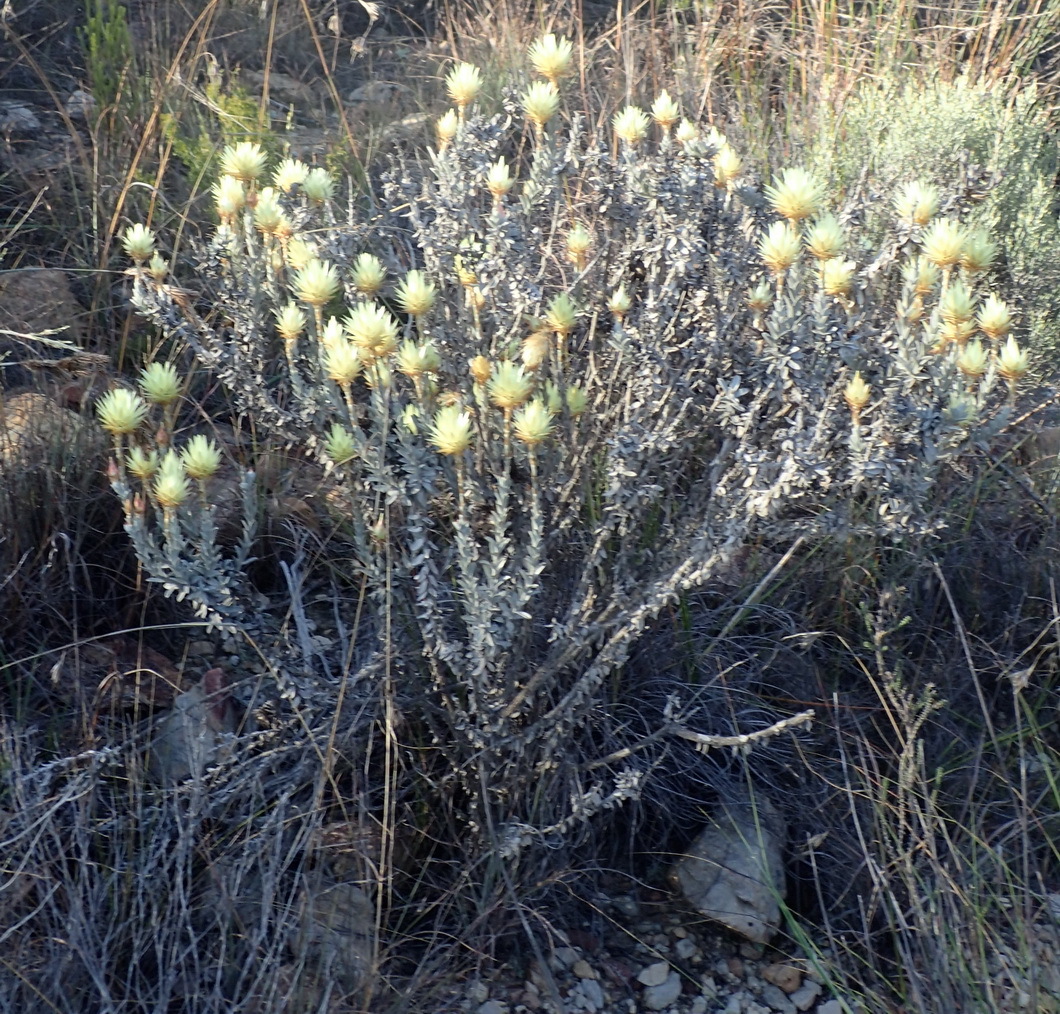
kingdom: Plantae
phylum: Tracheophyta
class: Magnoliopsida
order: Asterales
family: Asteraceae
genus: Syncarpha
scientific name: Syncarpha ferruginea
